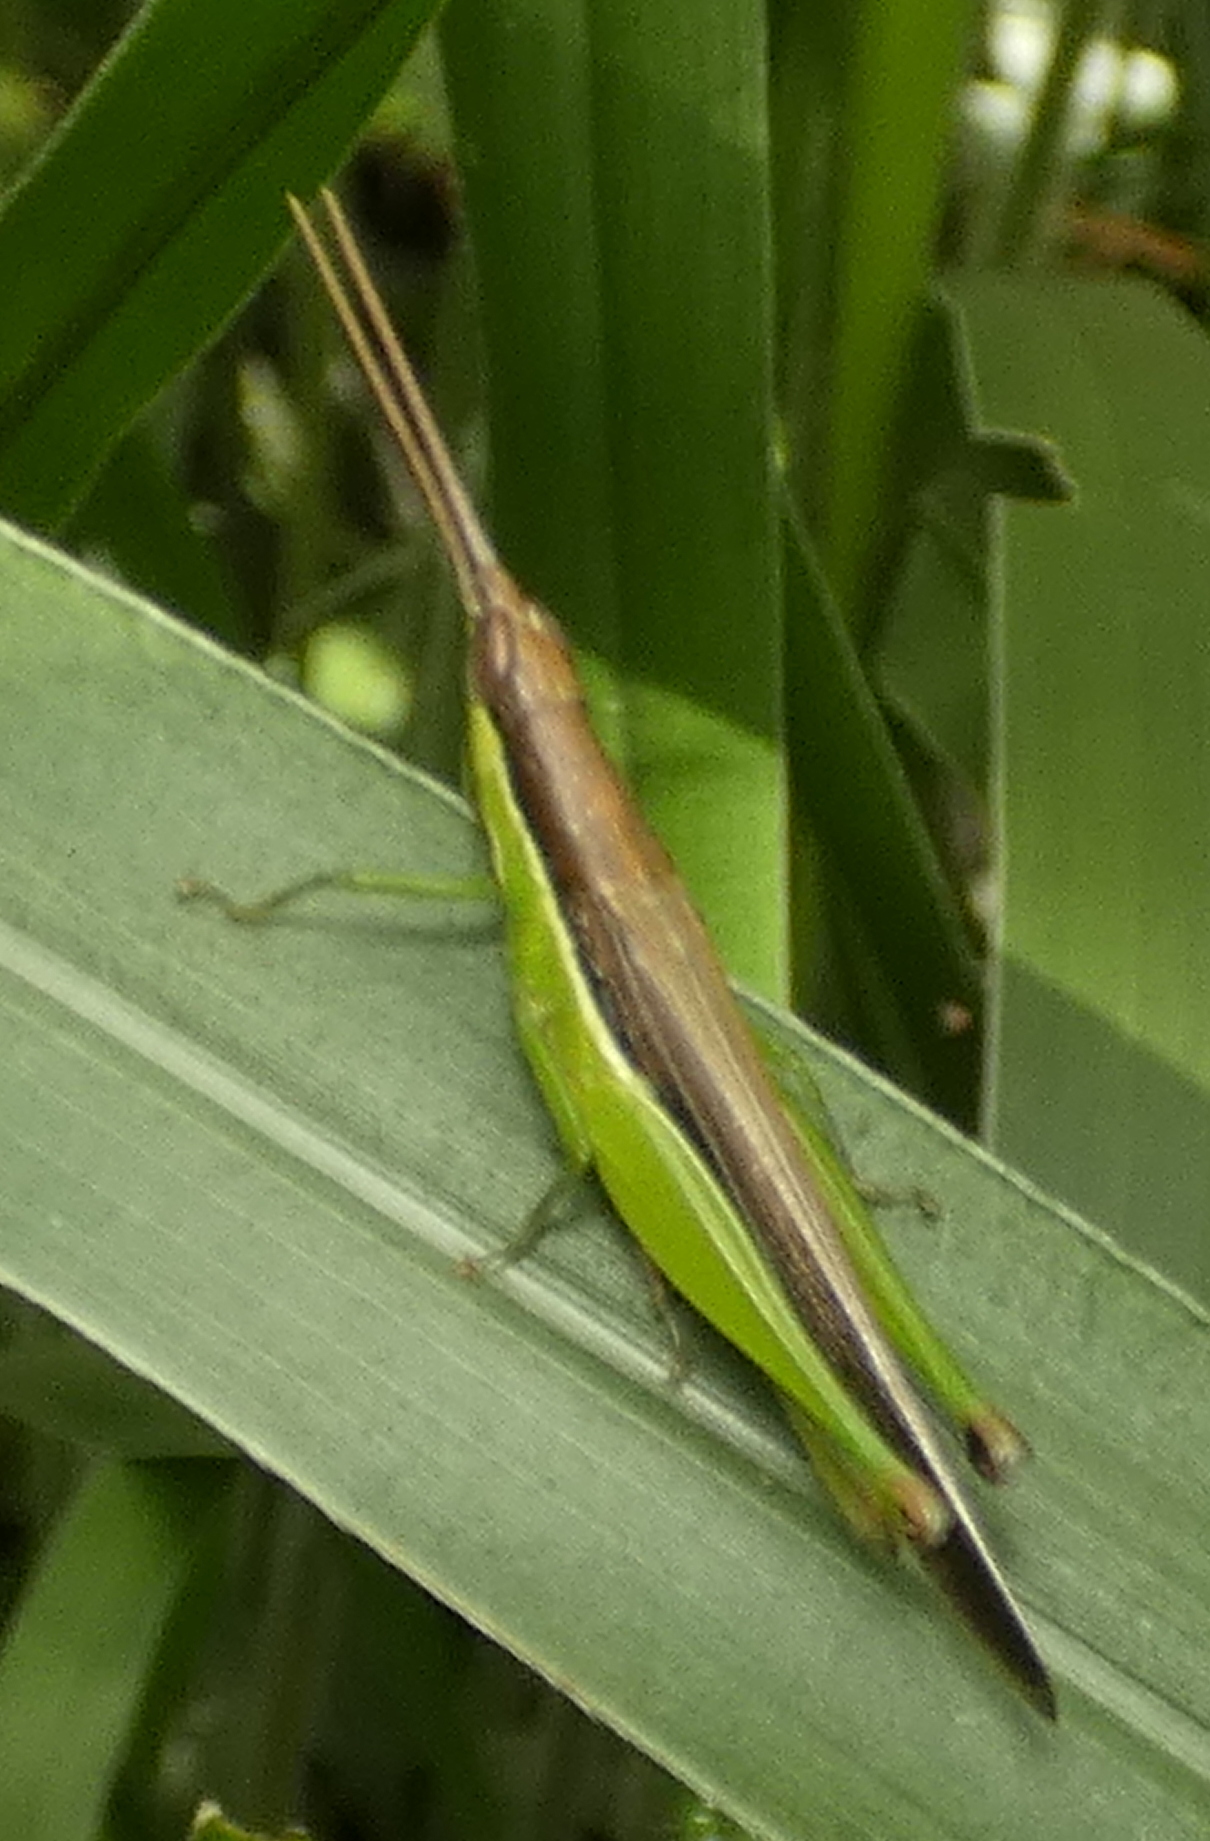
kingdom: Animalia
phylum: Arthropoda
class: Insecta
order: Orthoptera
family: Acrididae
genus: Stenopola
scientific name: Stenopola dorsalis
